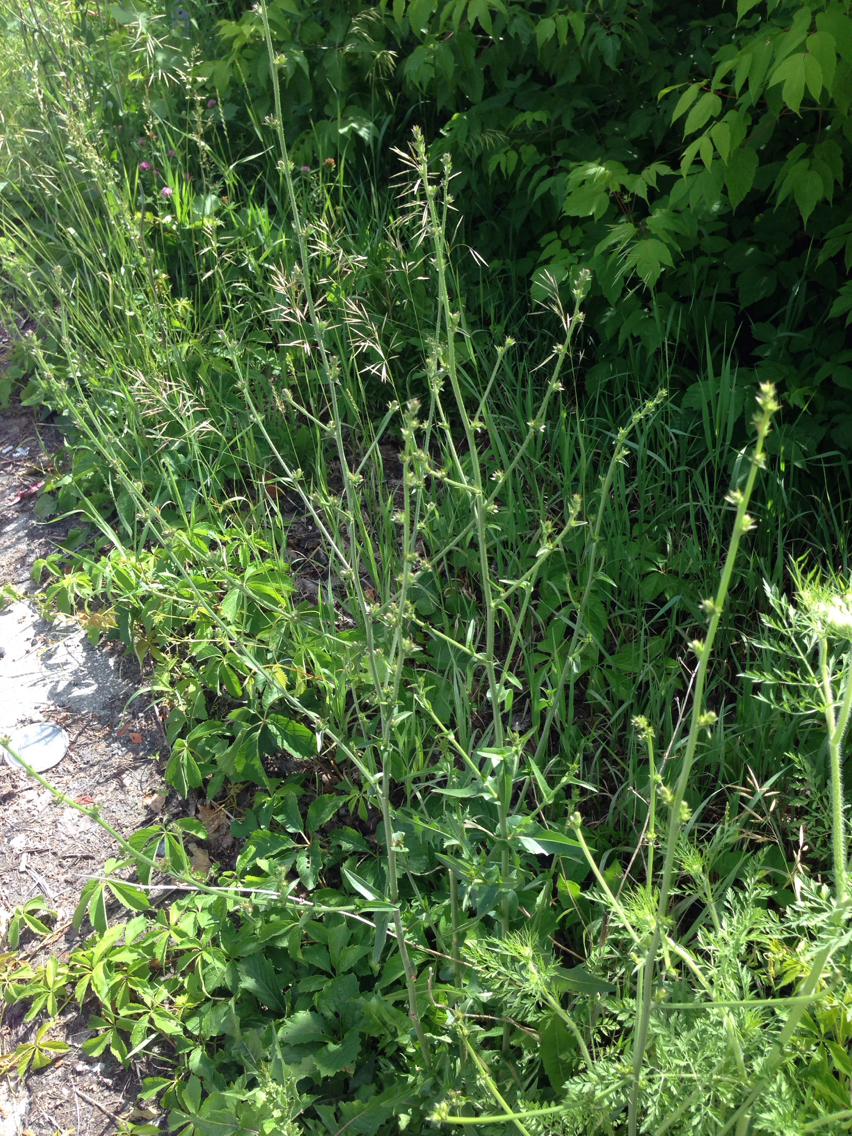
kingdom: Plantae
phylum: Tracheophyta
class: Magnoliopsida
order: Asterales
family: Asteraceae
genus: Cichorium
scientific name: Cichorium intybus
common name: Chicory
